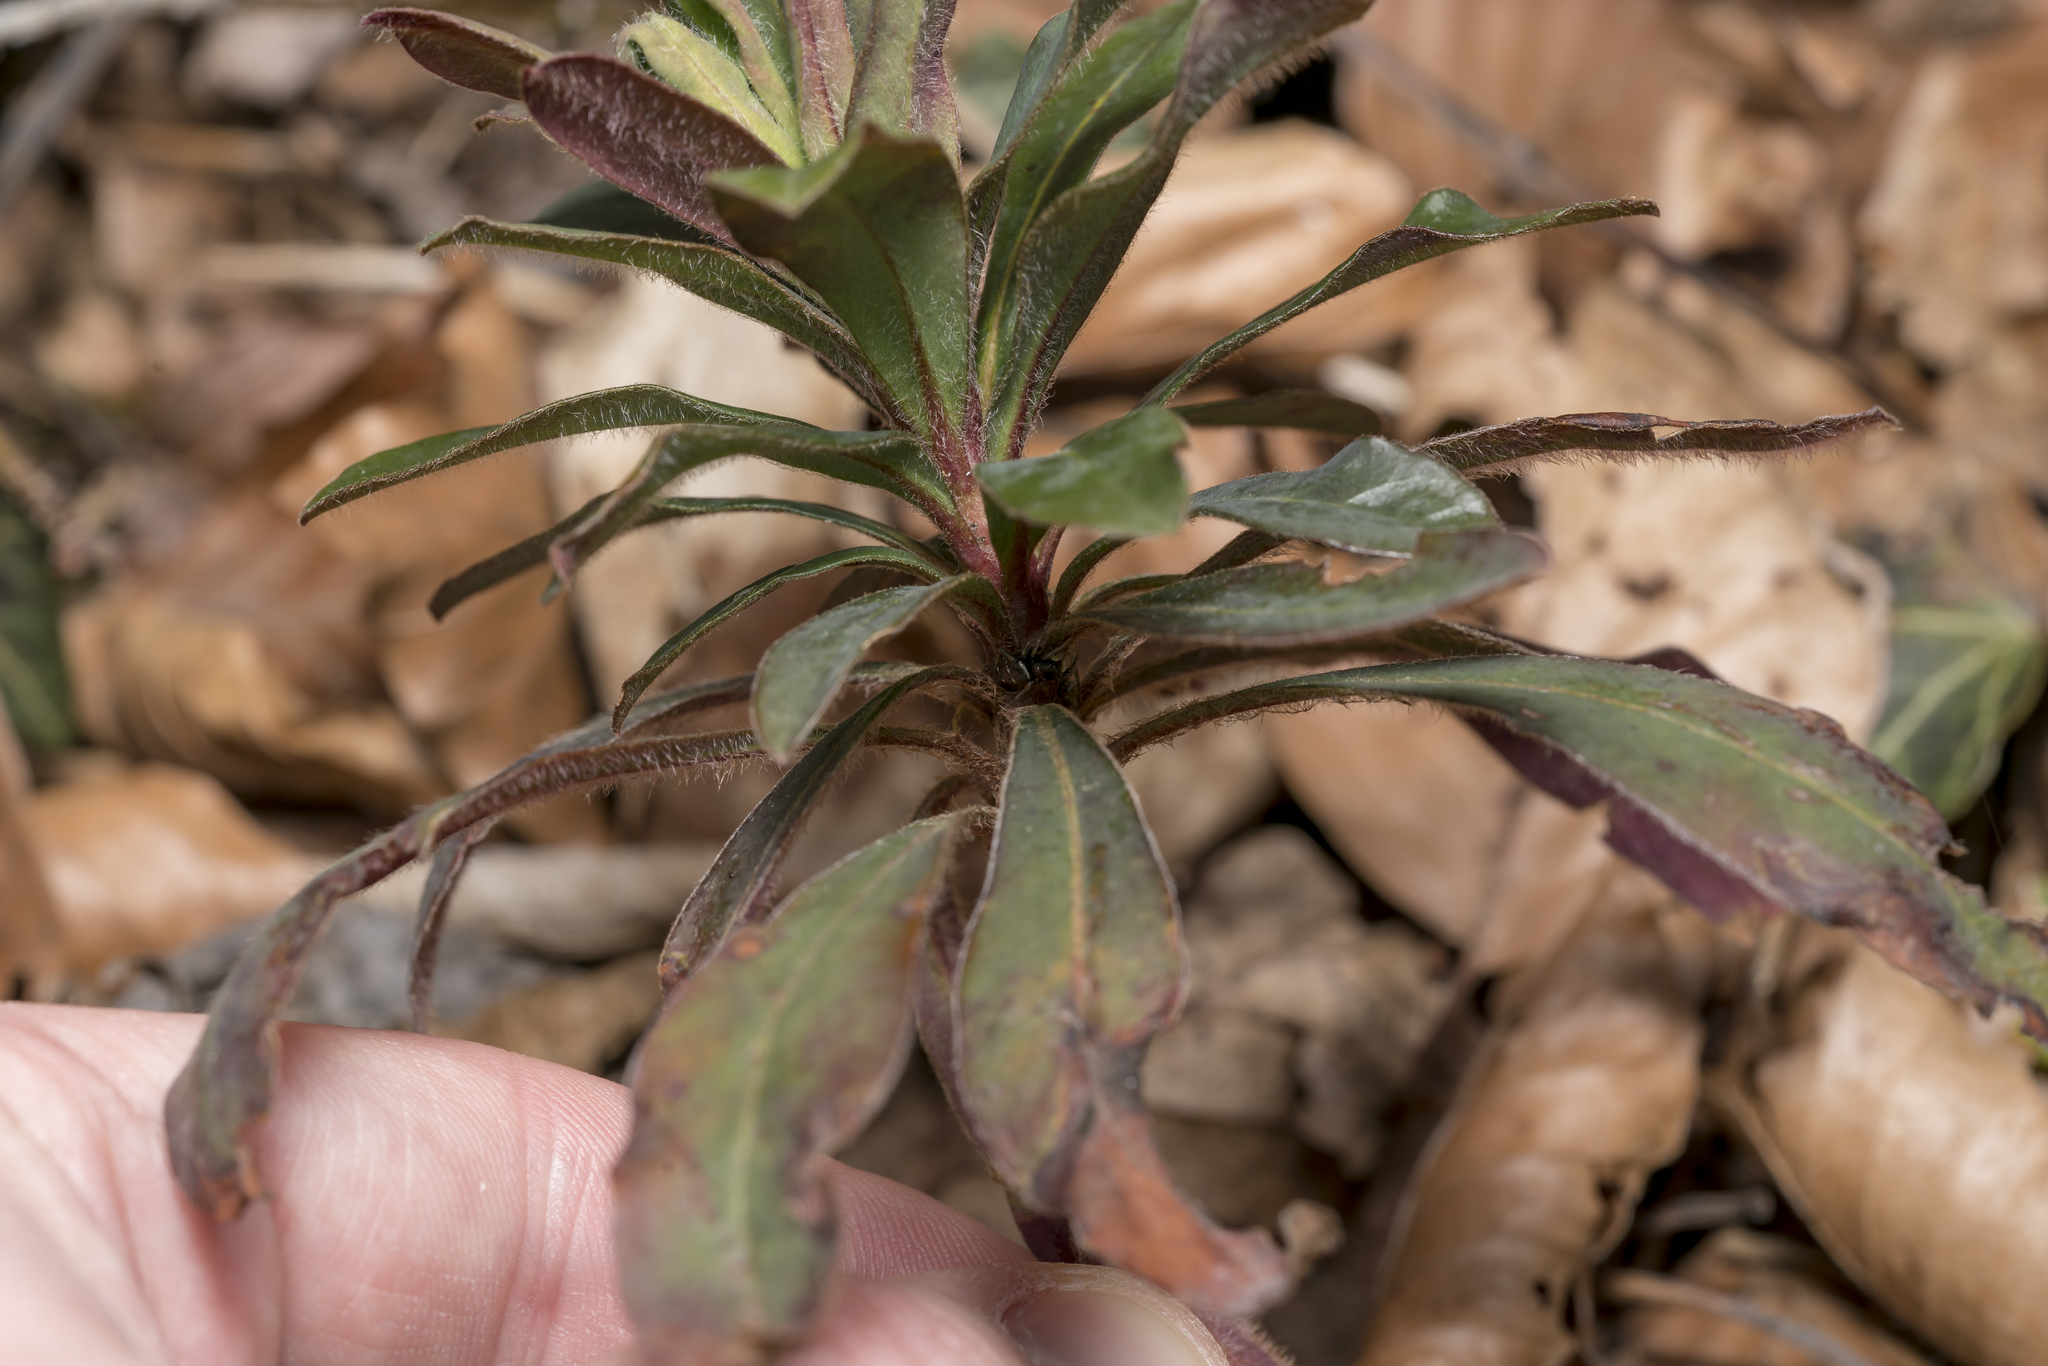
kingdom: Plantae
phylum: Tracheophyta
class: Magnoliopsida
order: Malpighiales
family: Euphorbiaceae
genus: Euphorbia
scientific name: Euphorbia amygdaloides
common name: Wood spurge
